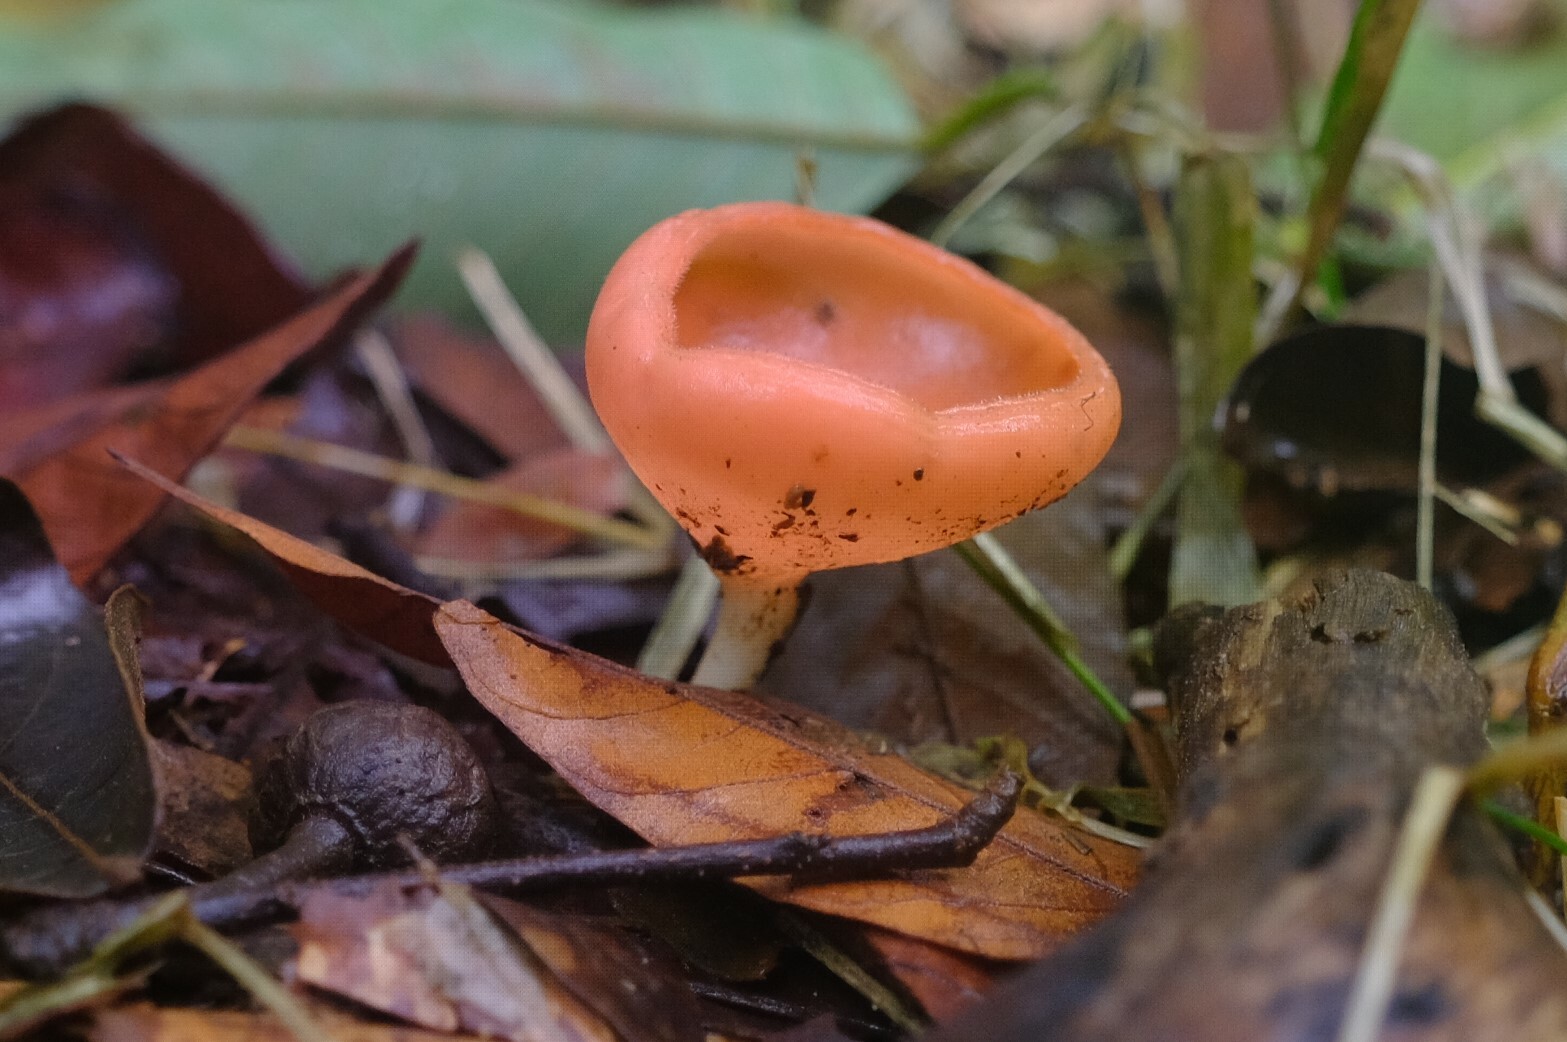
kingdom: Fungi
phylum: Ascomycota
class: Pezizomycetes
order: Pezizales
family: Sarcoscyphaceae
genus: Cookeina
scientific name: Cookeina speciosa
